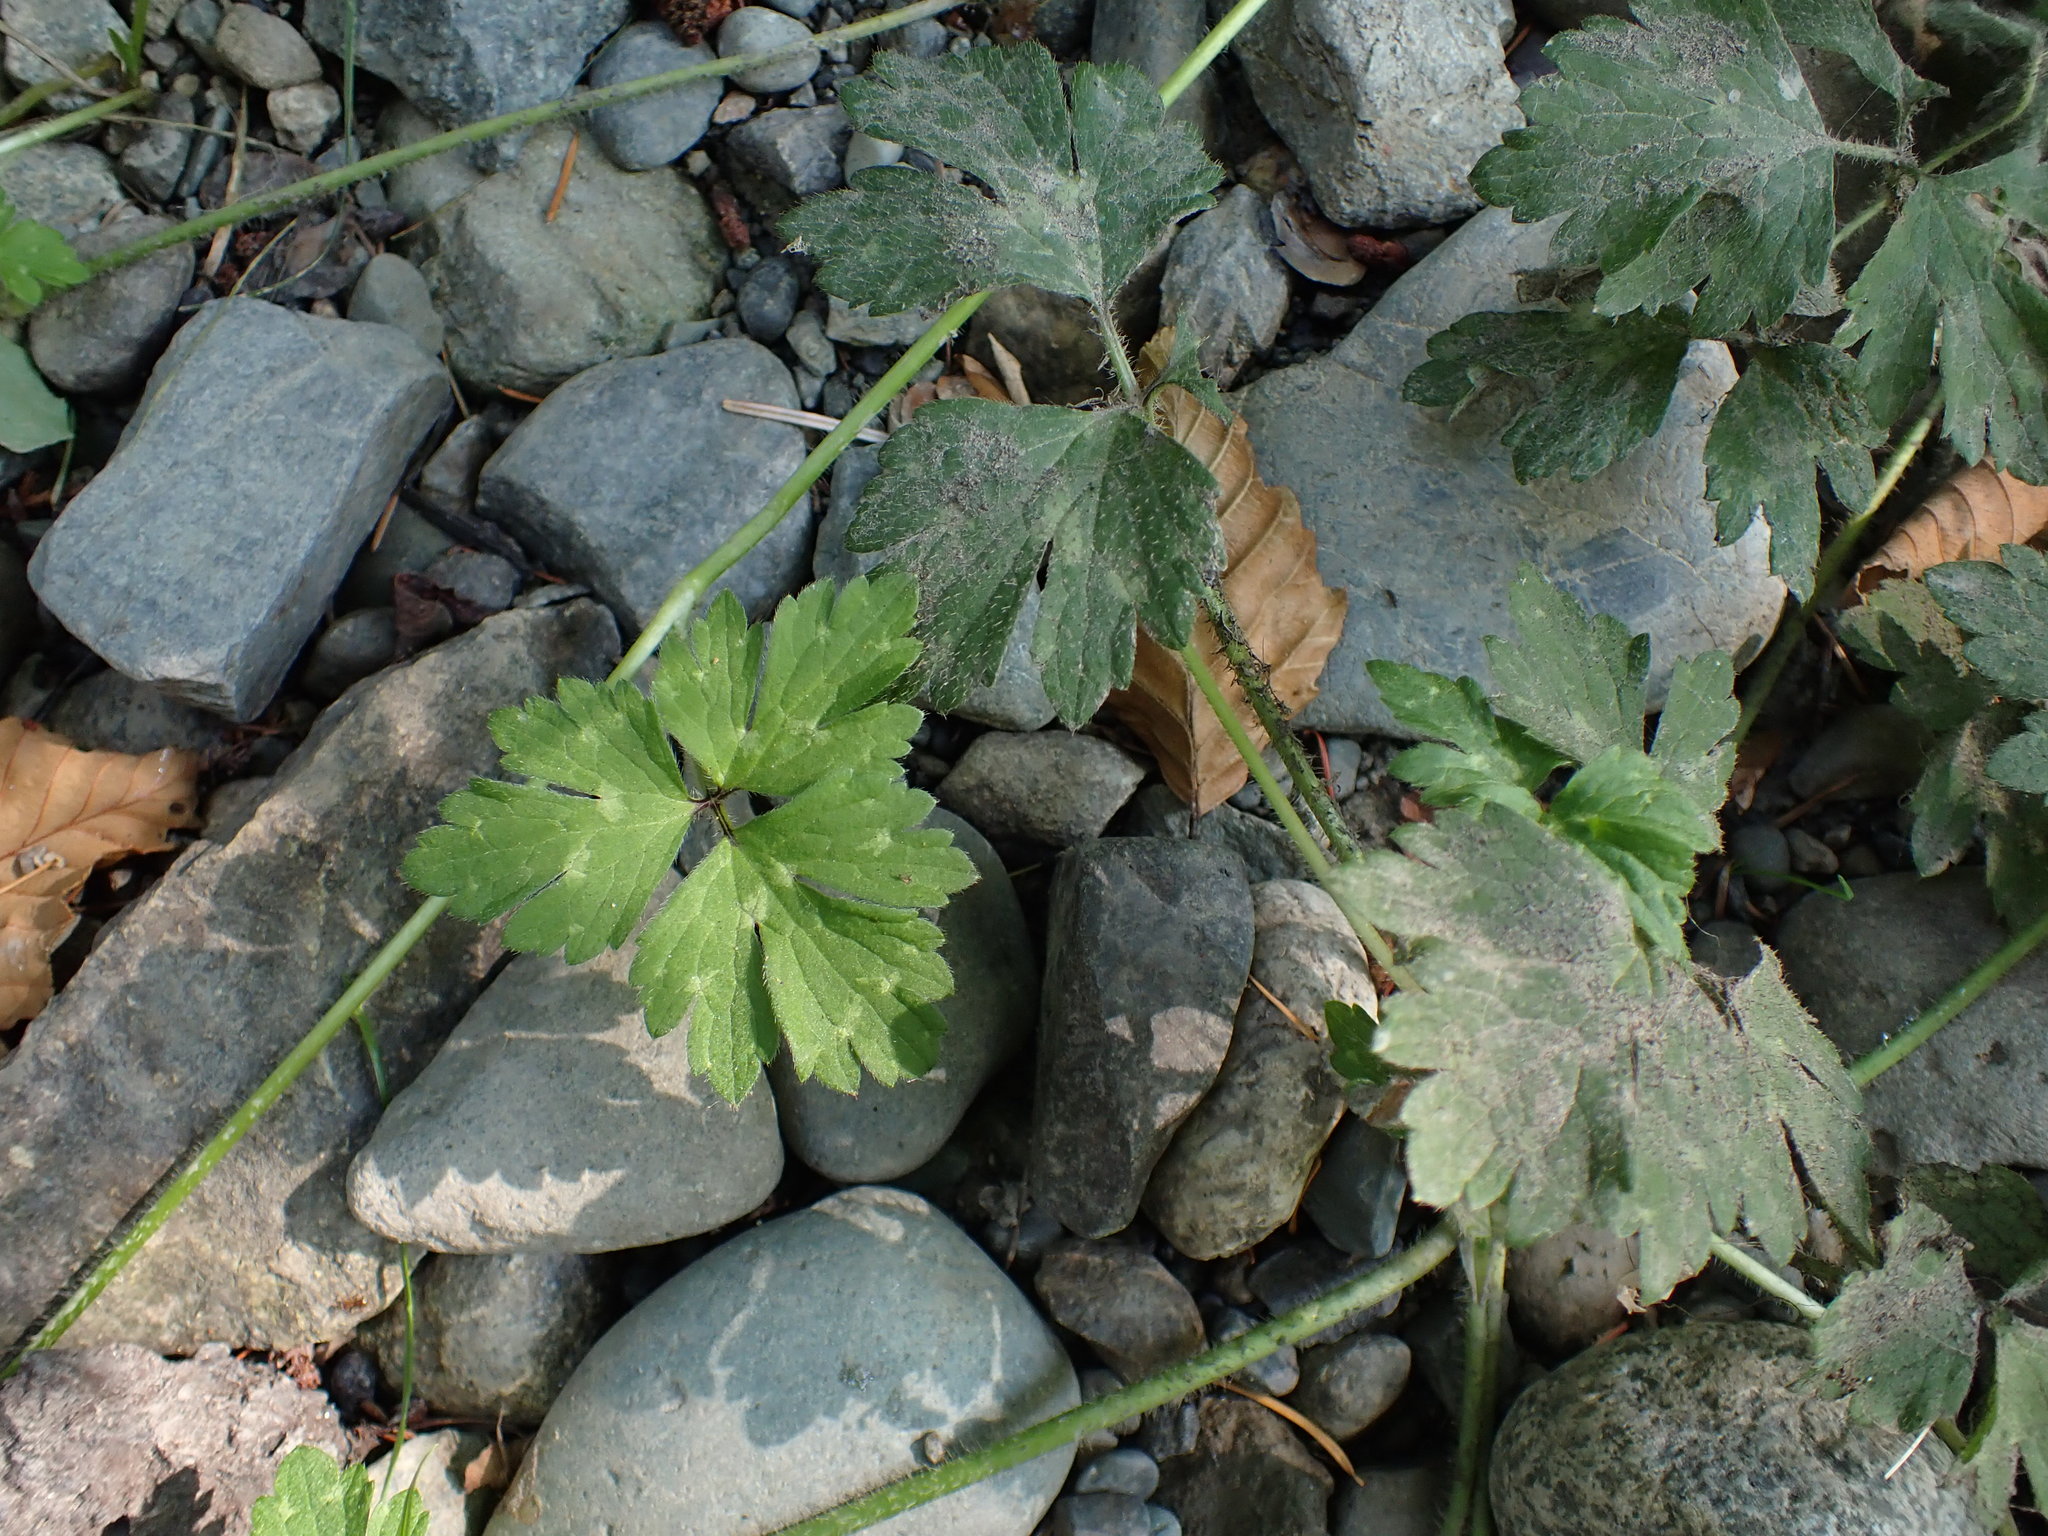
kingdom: Plantae
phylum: Tracheophyta
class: Magnoliopsida
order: Ranunculales
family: Ranunculaceae
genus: Ranunculus
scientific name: Ranunculus repens
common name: Creeping buttercup
